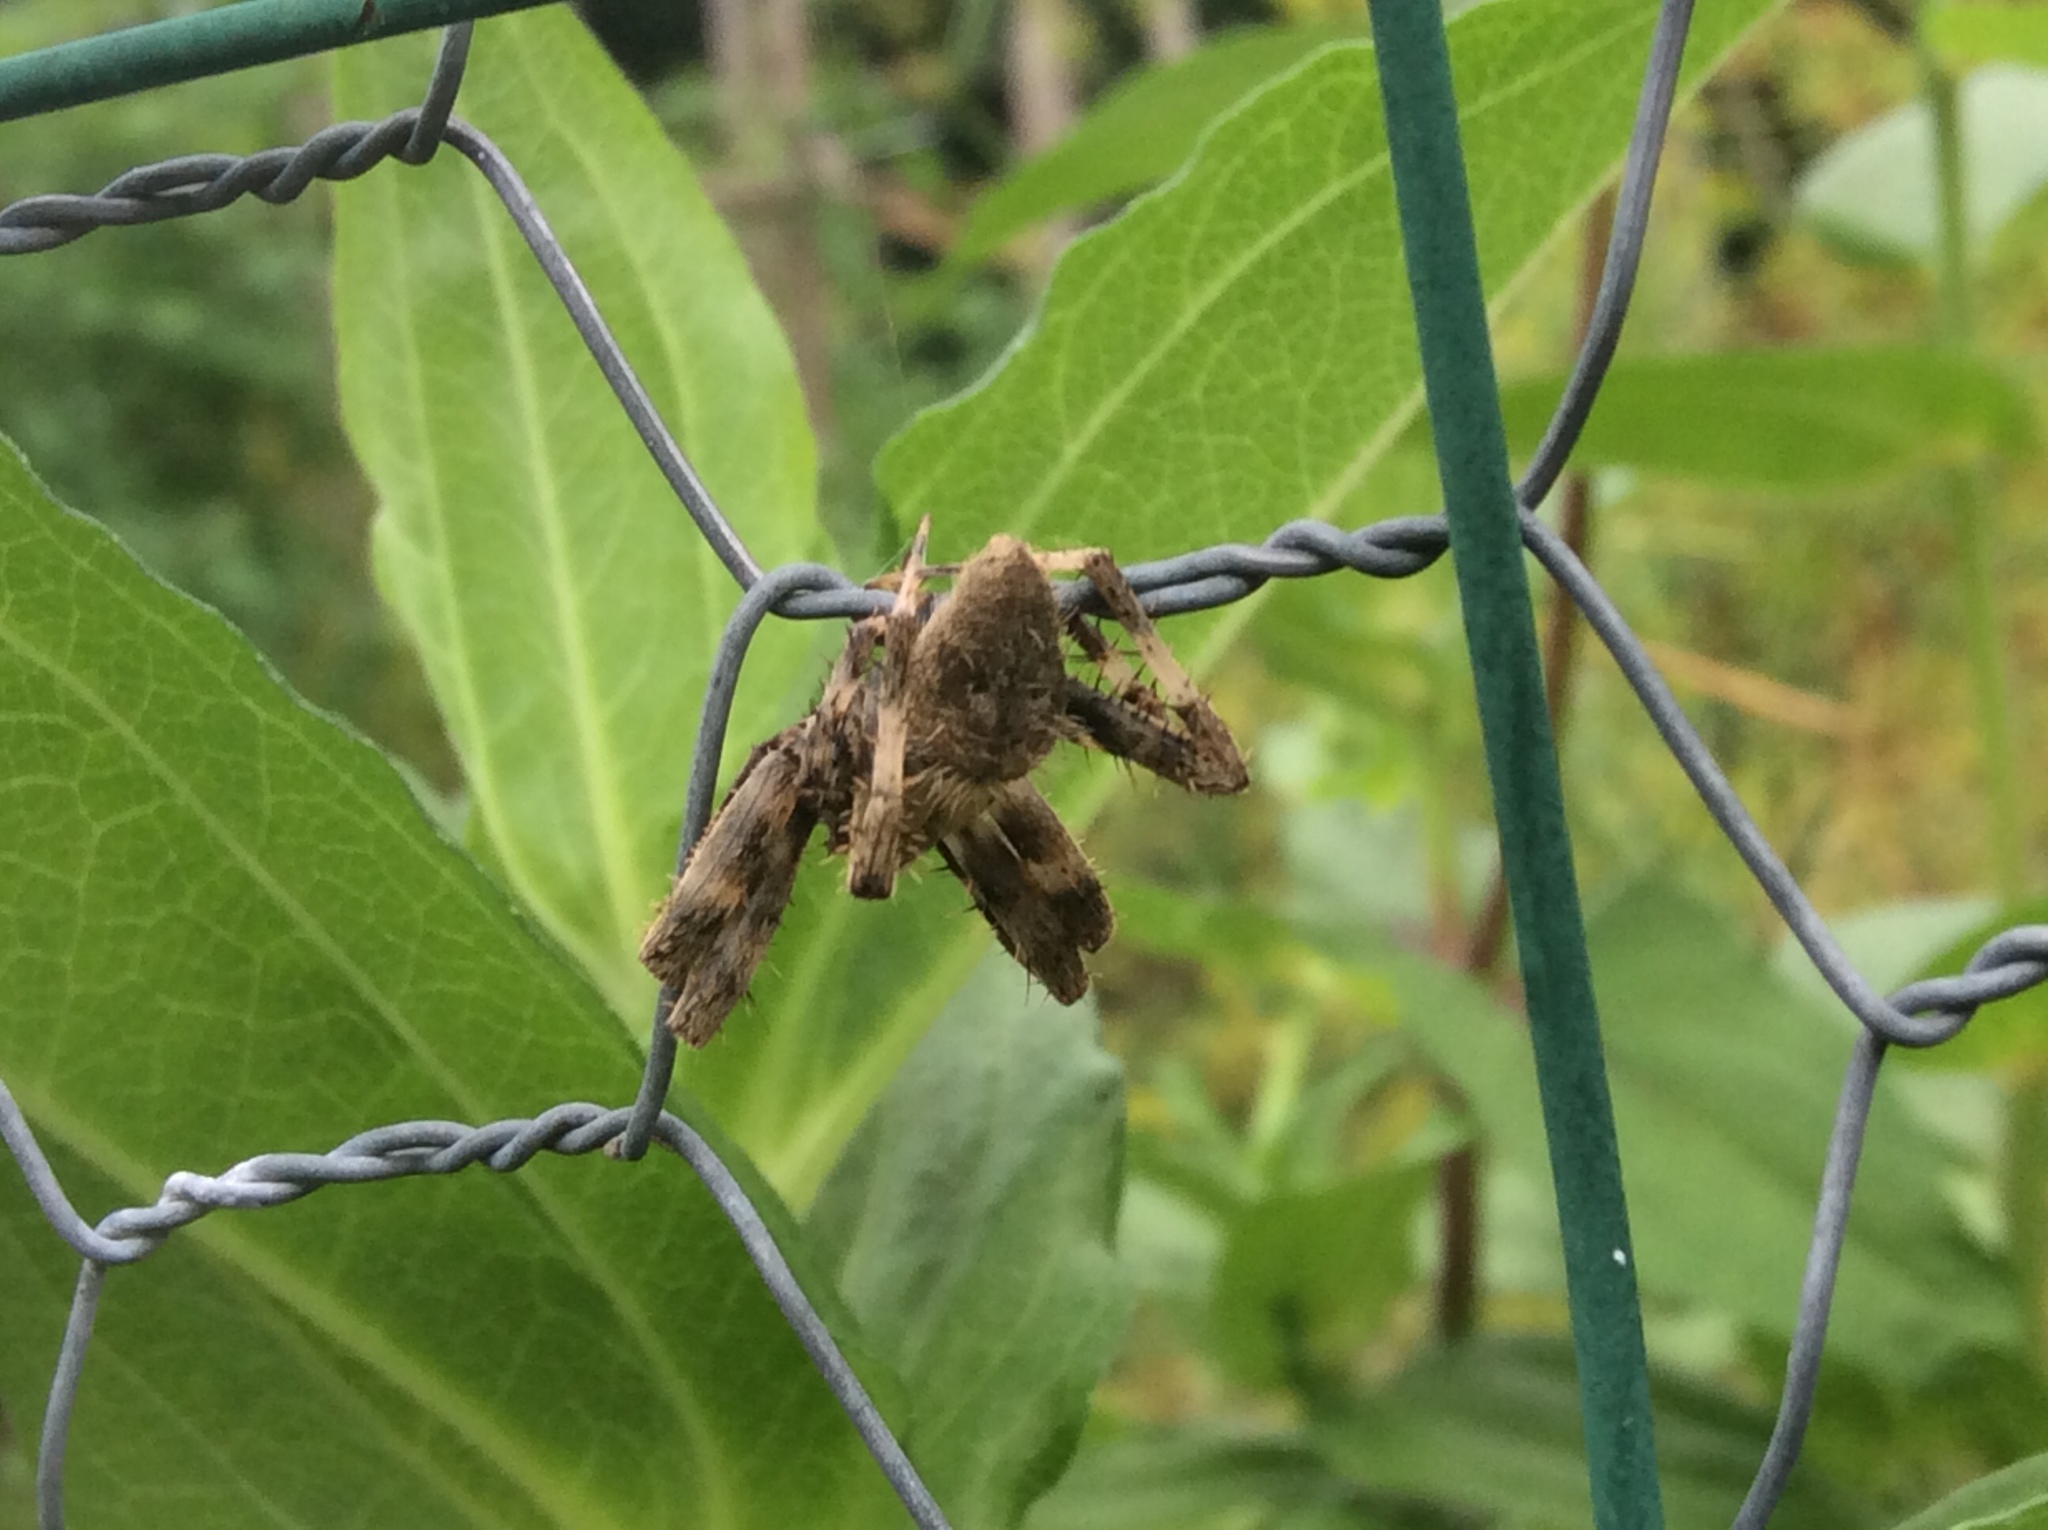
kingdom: Animalia
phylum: Arthropoda
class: Arachnida
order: Araneae
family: Araneidae
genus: Neoscona
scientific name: Neoscona crucifera
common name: Spotted orbweaver
